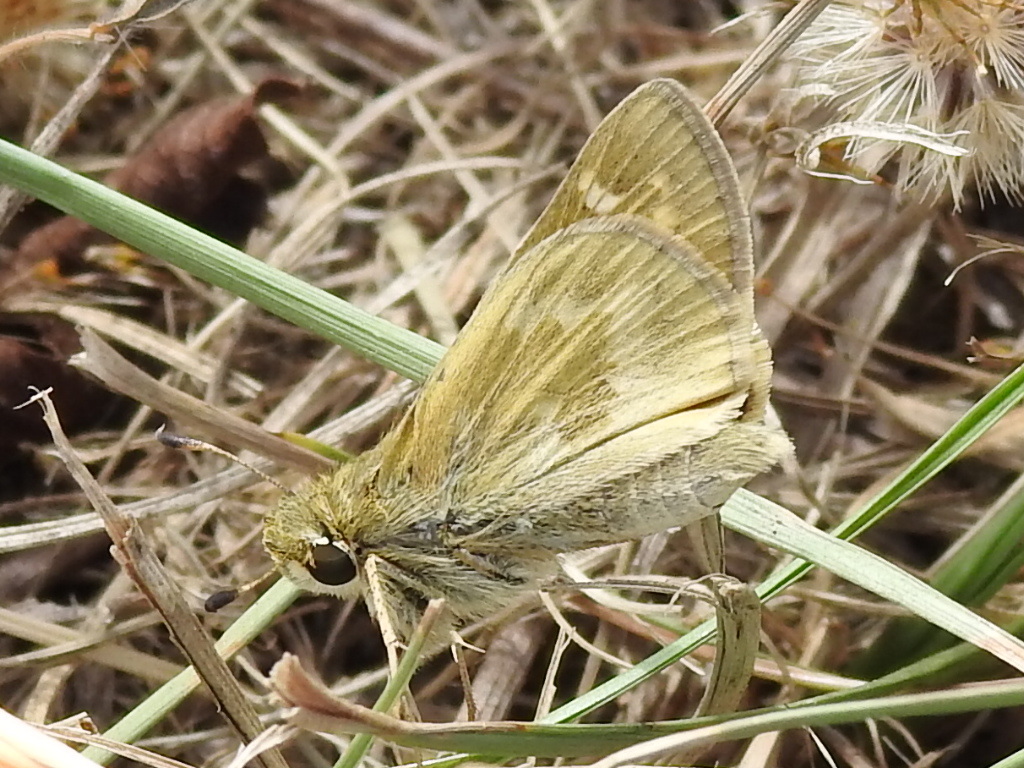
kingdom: Animalia
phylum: Arthropoda
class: Insecta
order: Lepidoptera
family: Hesperiidae
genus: Atalopedes
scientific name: Atalopedes
